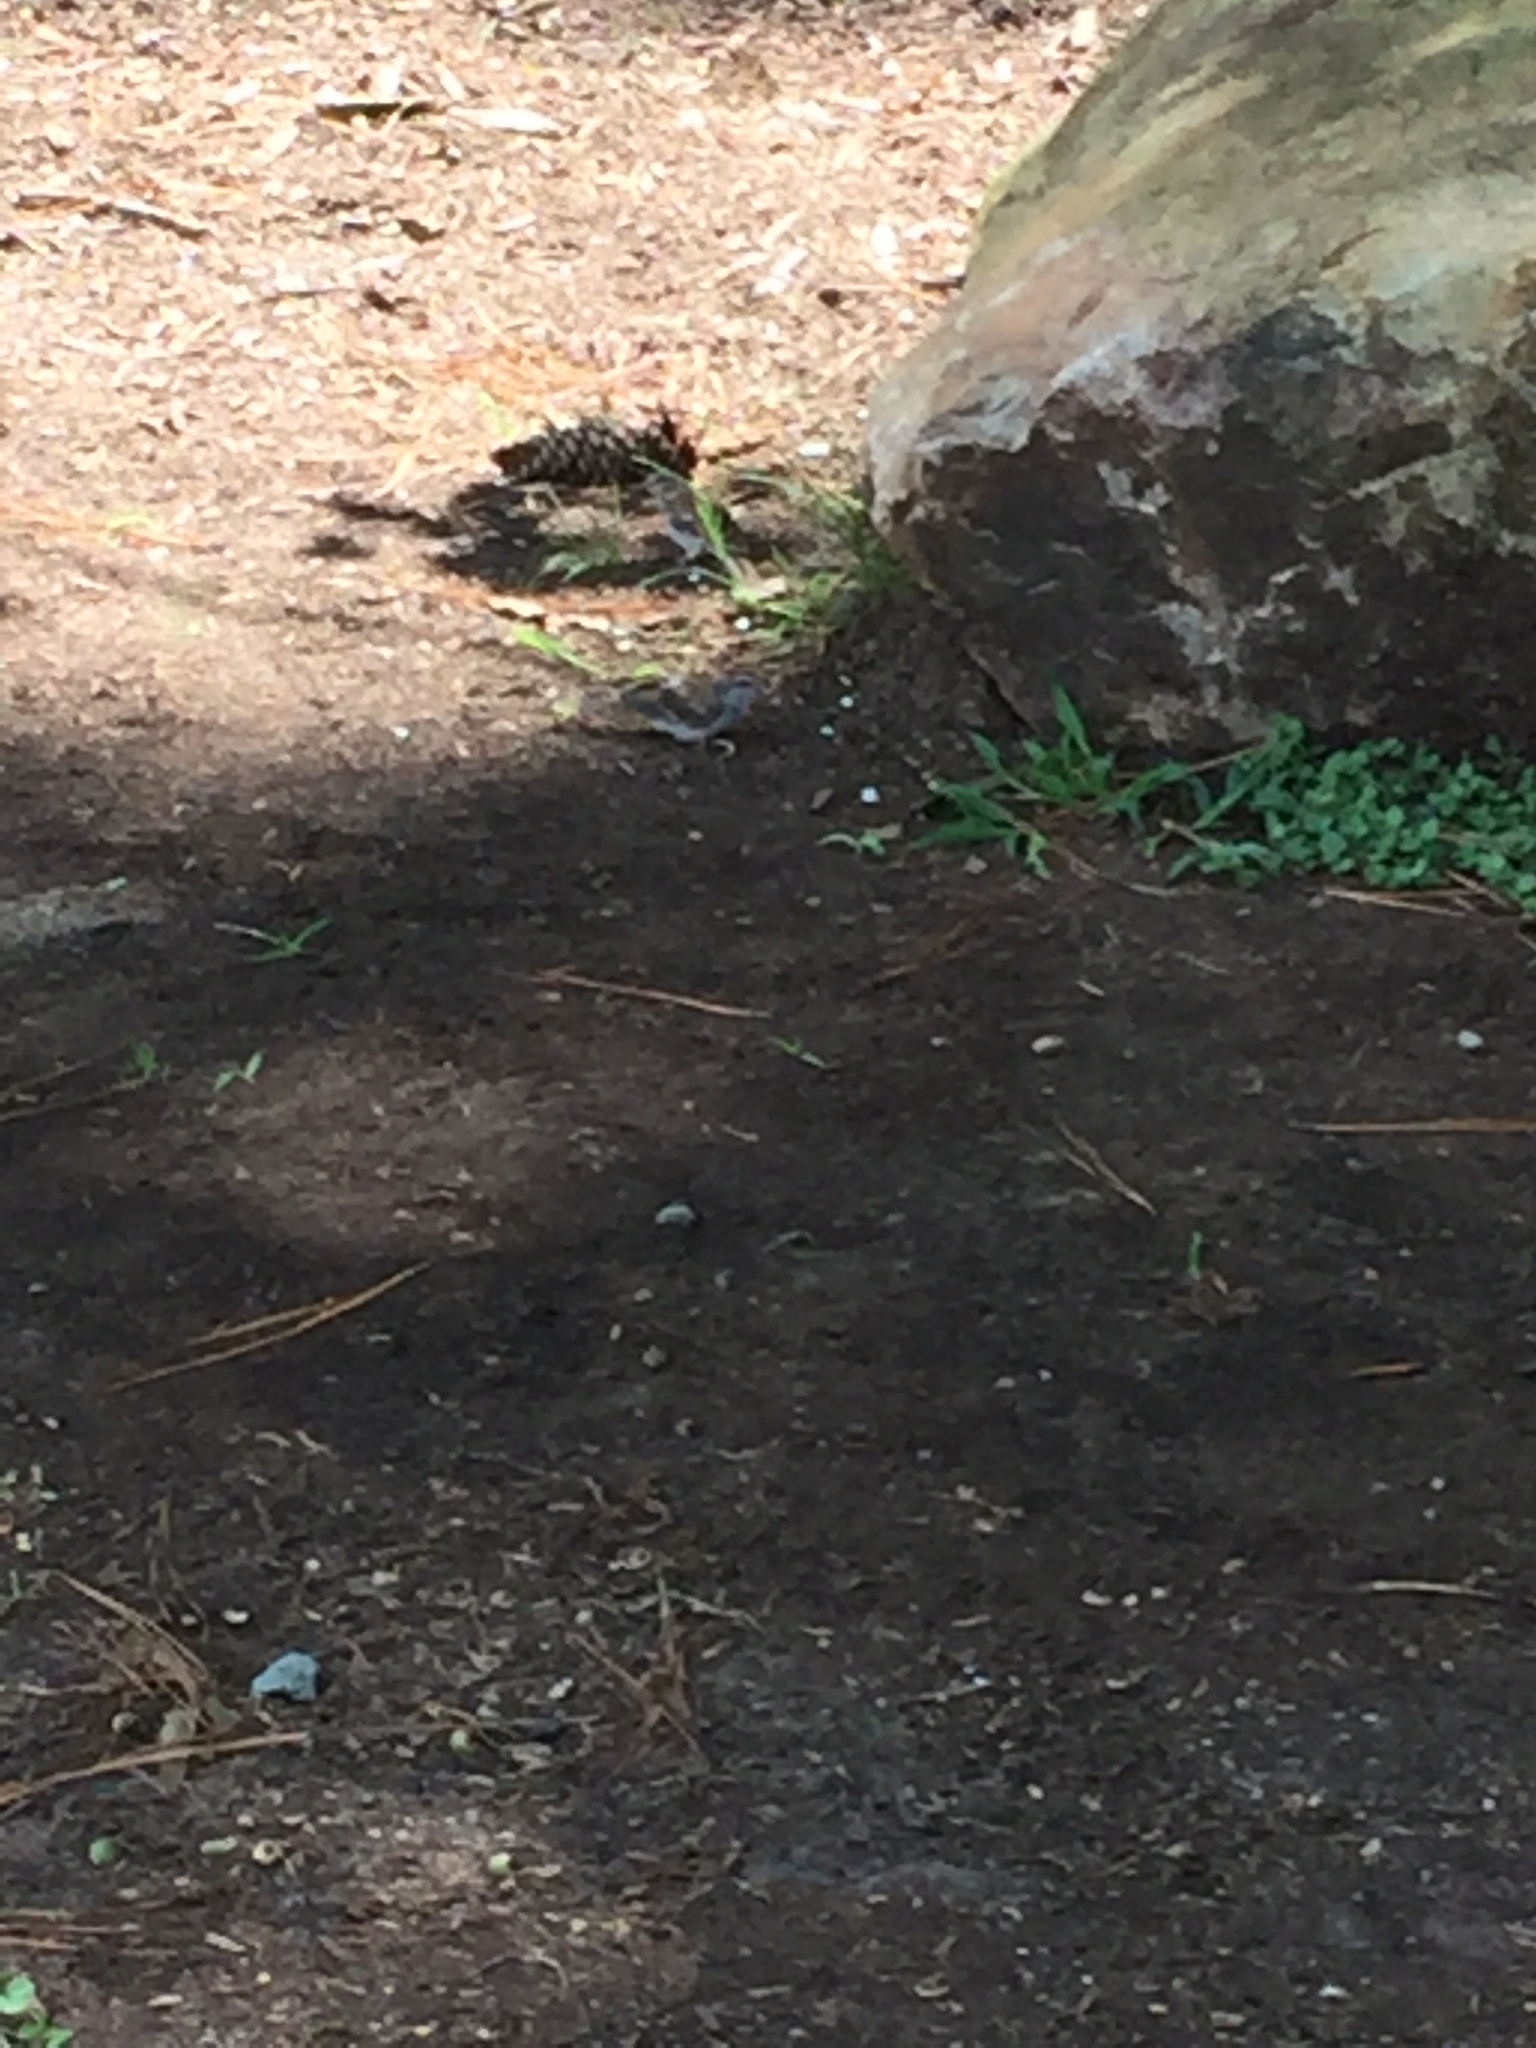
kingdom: Animalia
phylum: Chordata
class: Aves
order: Passeriformes
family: Passerellidae
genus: Spizella
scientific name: Spizella passerina
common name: Chipping sparrow
